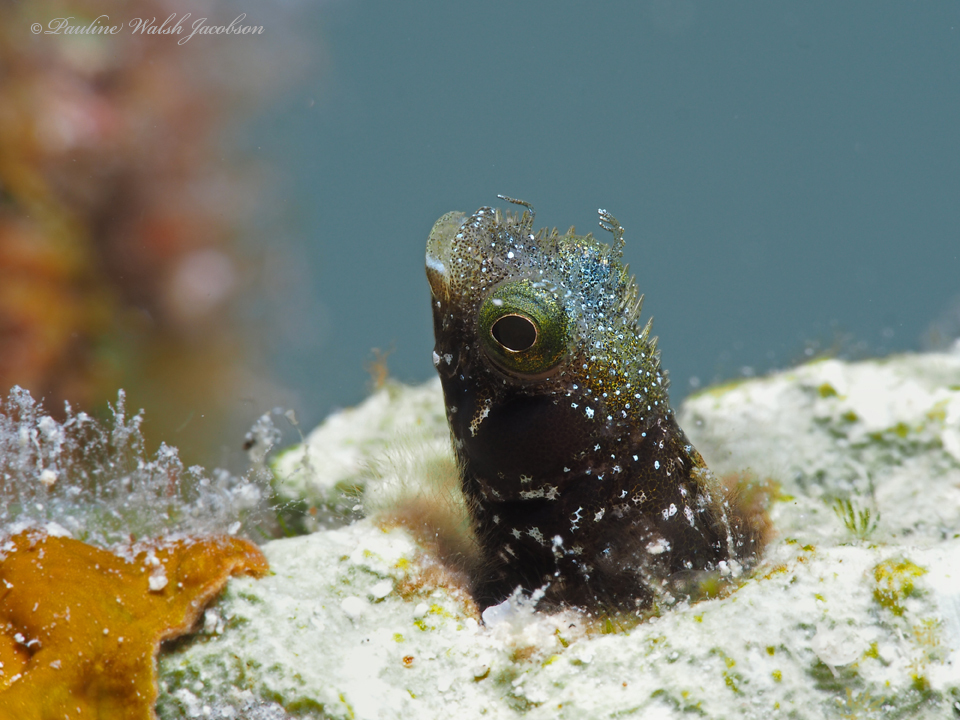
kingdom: Animalia
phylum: Chordata
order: Perciformes
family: Chaenopsidae
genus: Acanthemblemaria
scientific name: Acanthemblemaria spinosa
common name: Spinyhead blenny
